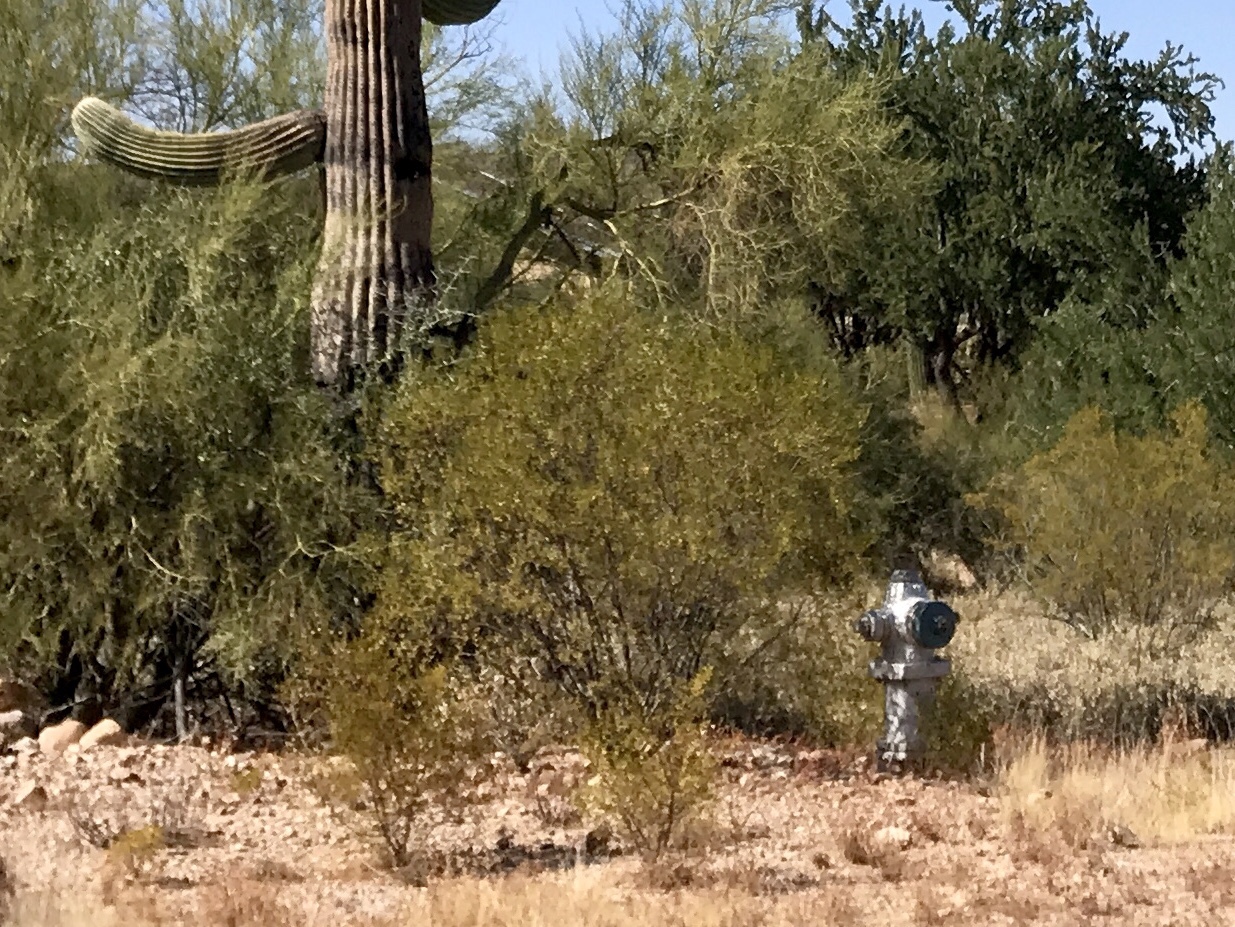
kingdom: Plantae
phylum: Tracheophyta
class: Magnoliopsida
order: Zygophyllales
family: Zygophyllaceae
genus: Larrea
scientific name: Larrea tridentata
